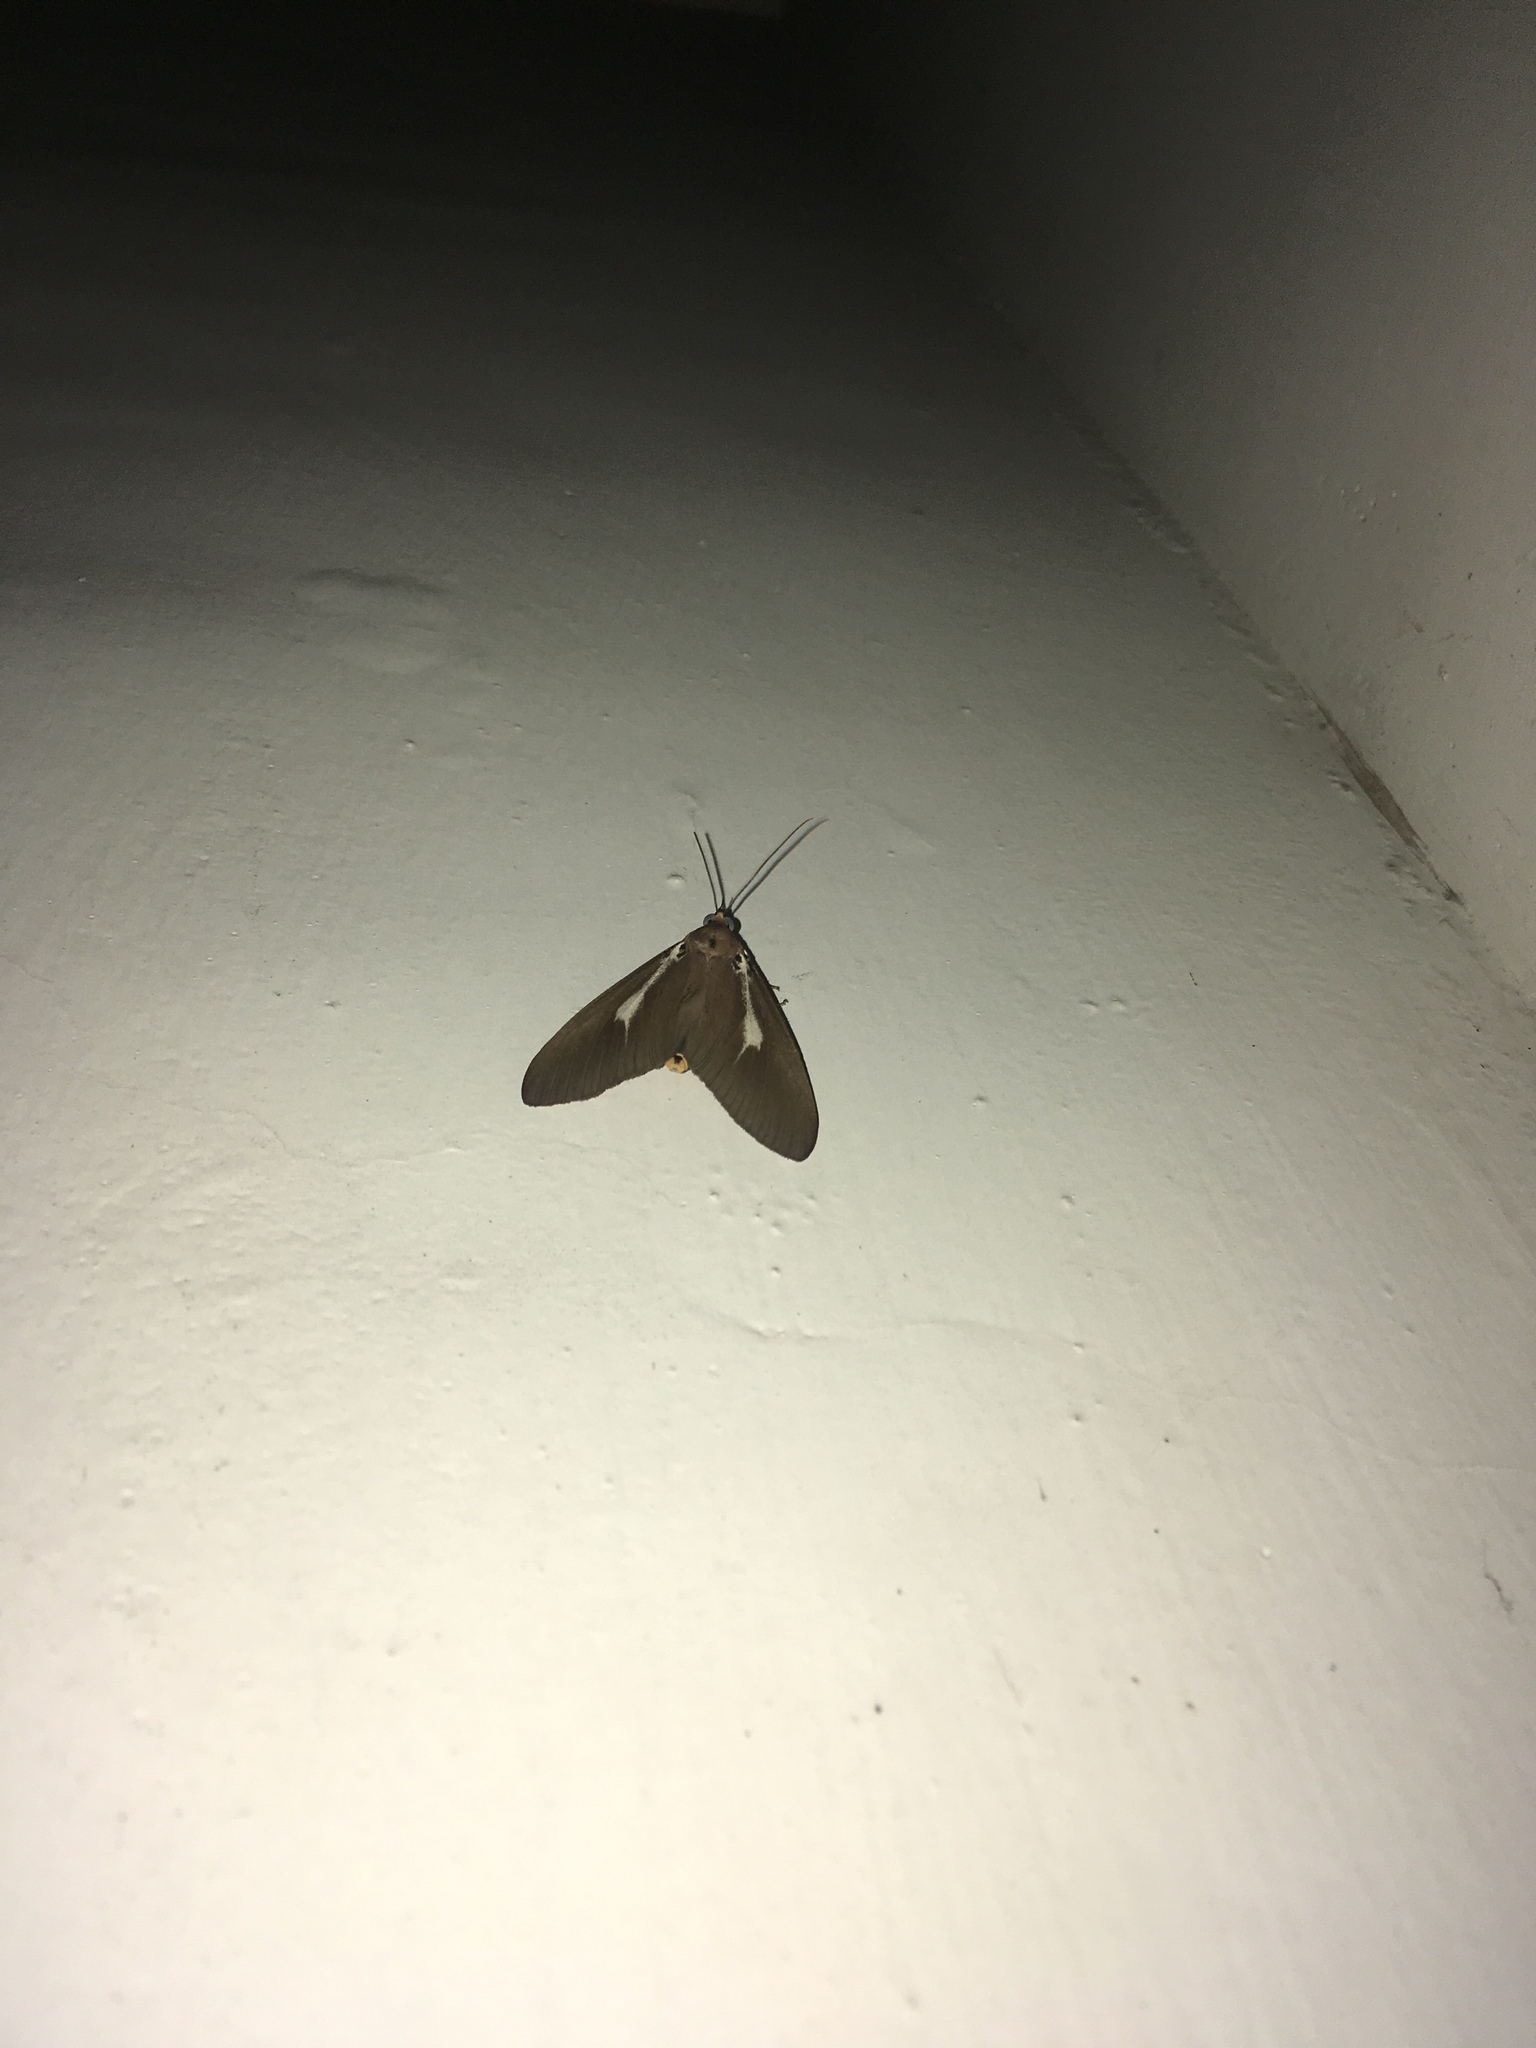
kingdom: Animalia
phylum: Arthropoda
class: Insecta
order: Lepidoptera
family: Erebidae
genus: Asota
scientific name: Asota heliconia
